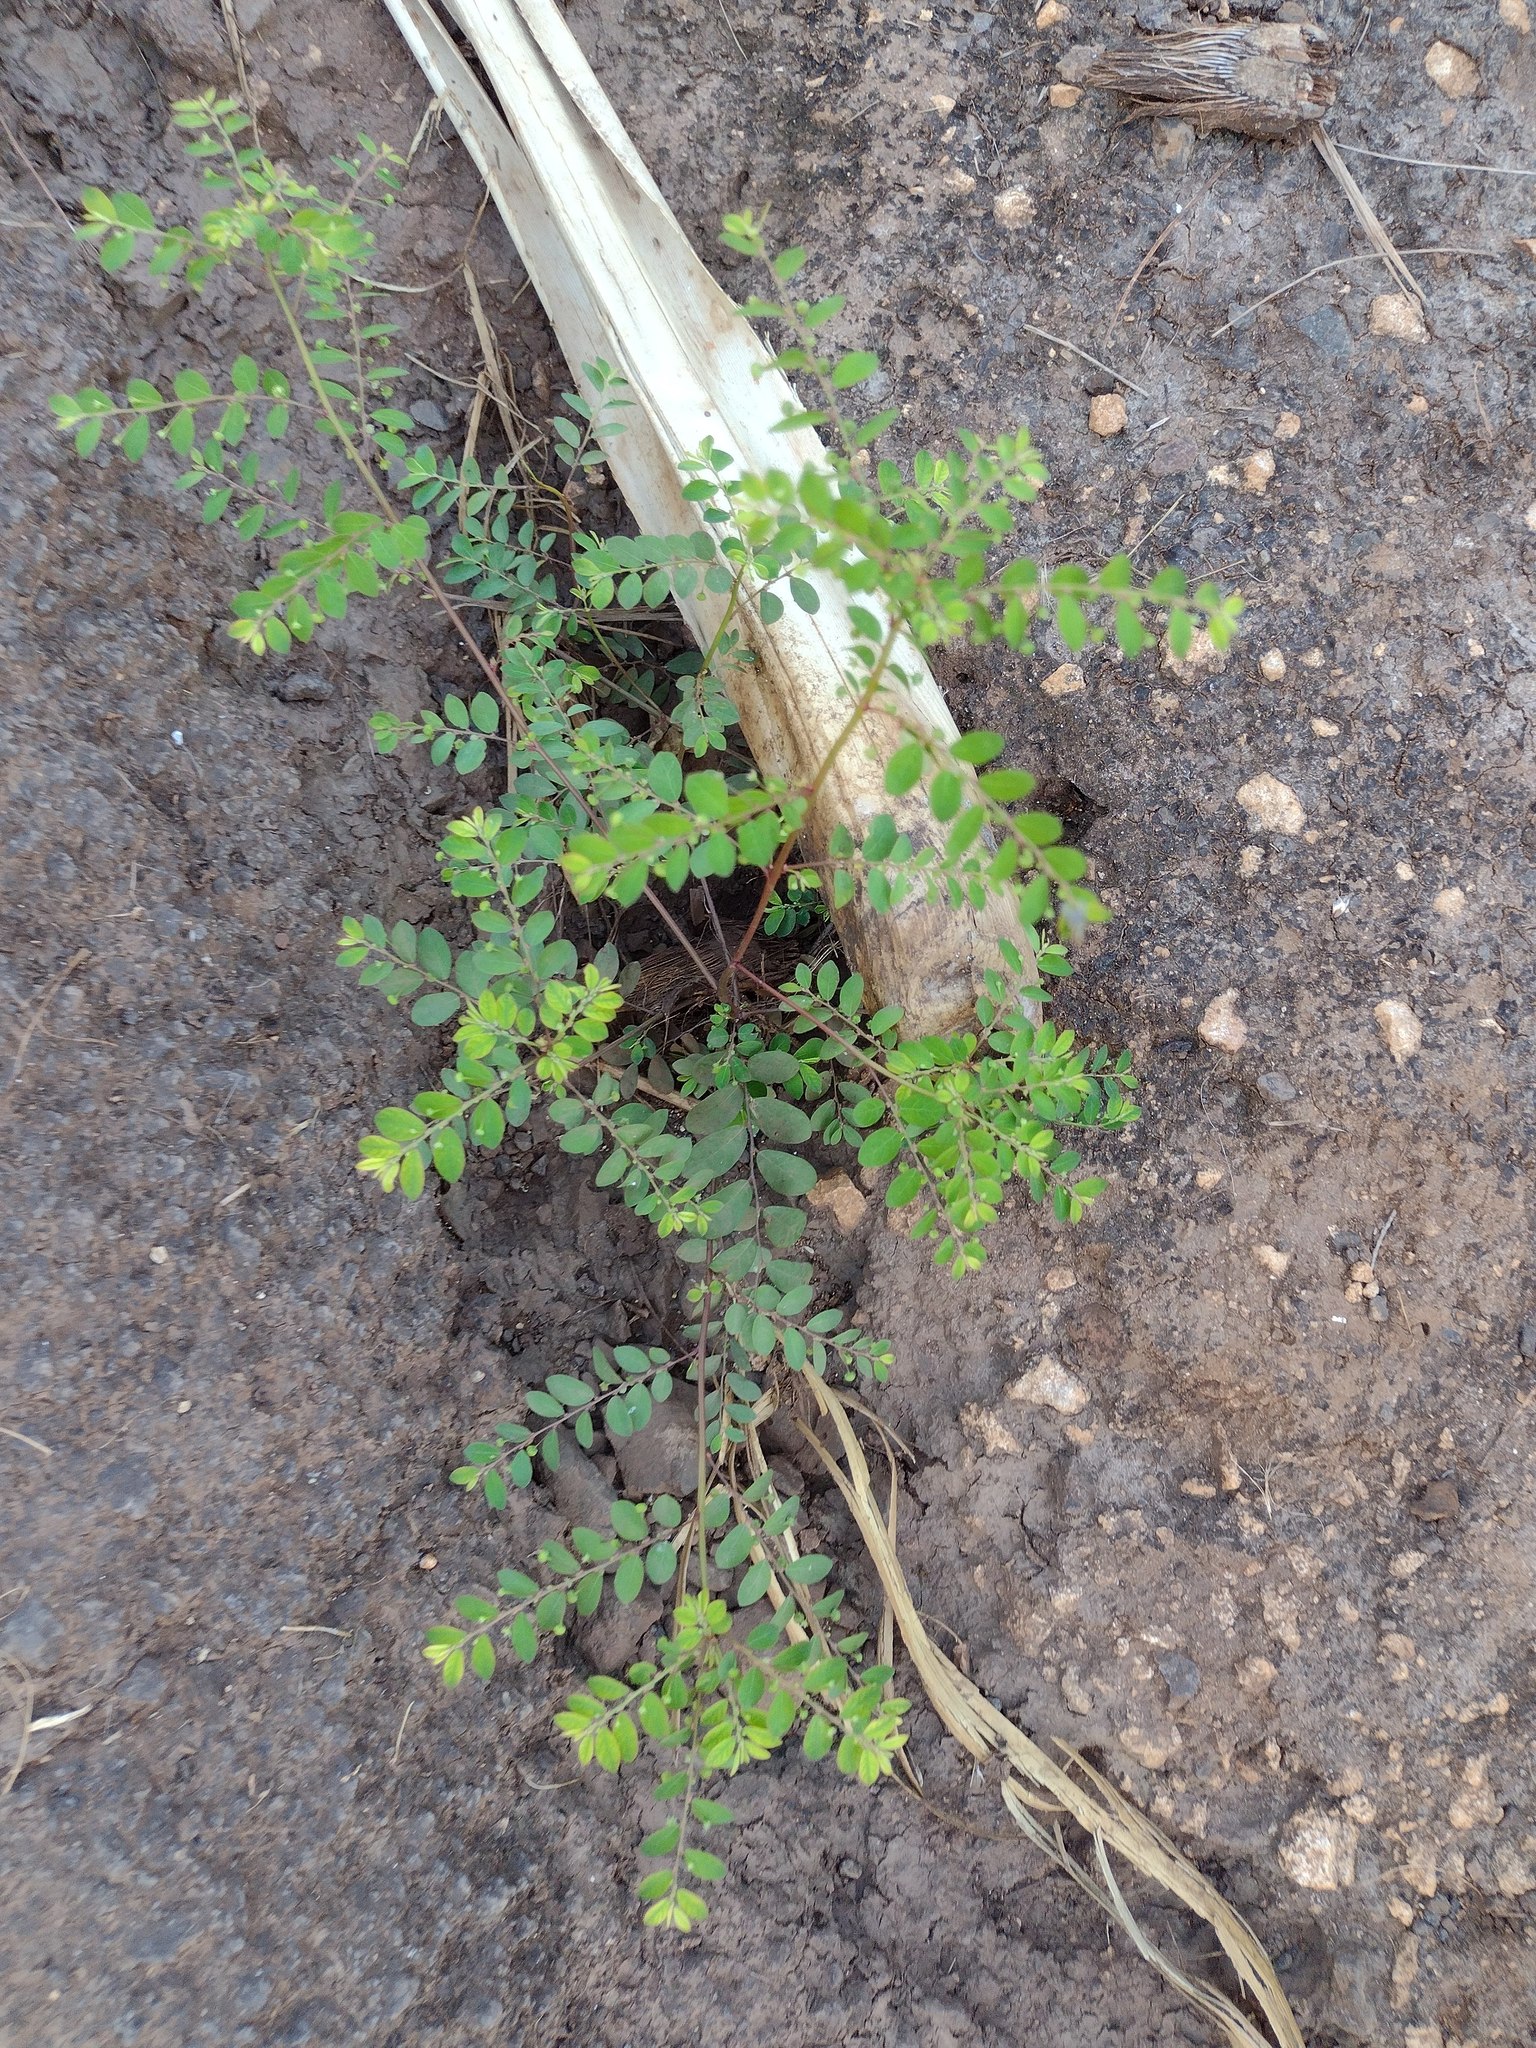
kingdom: Plantae
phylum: Tracheophyta
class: Magnoliopsida
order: Malpighiales
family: Phyllanthaceae
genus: Phyllanthus
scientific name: Phyllanthus tenellus
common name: Mascarene island leaf-flower
